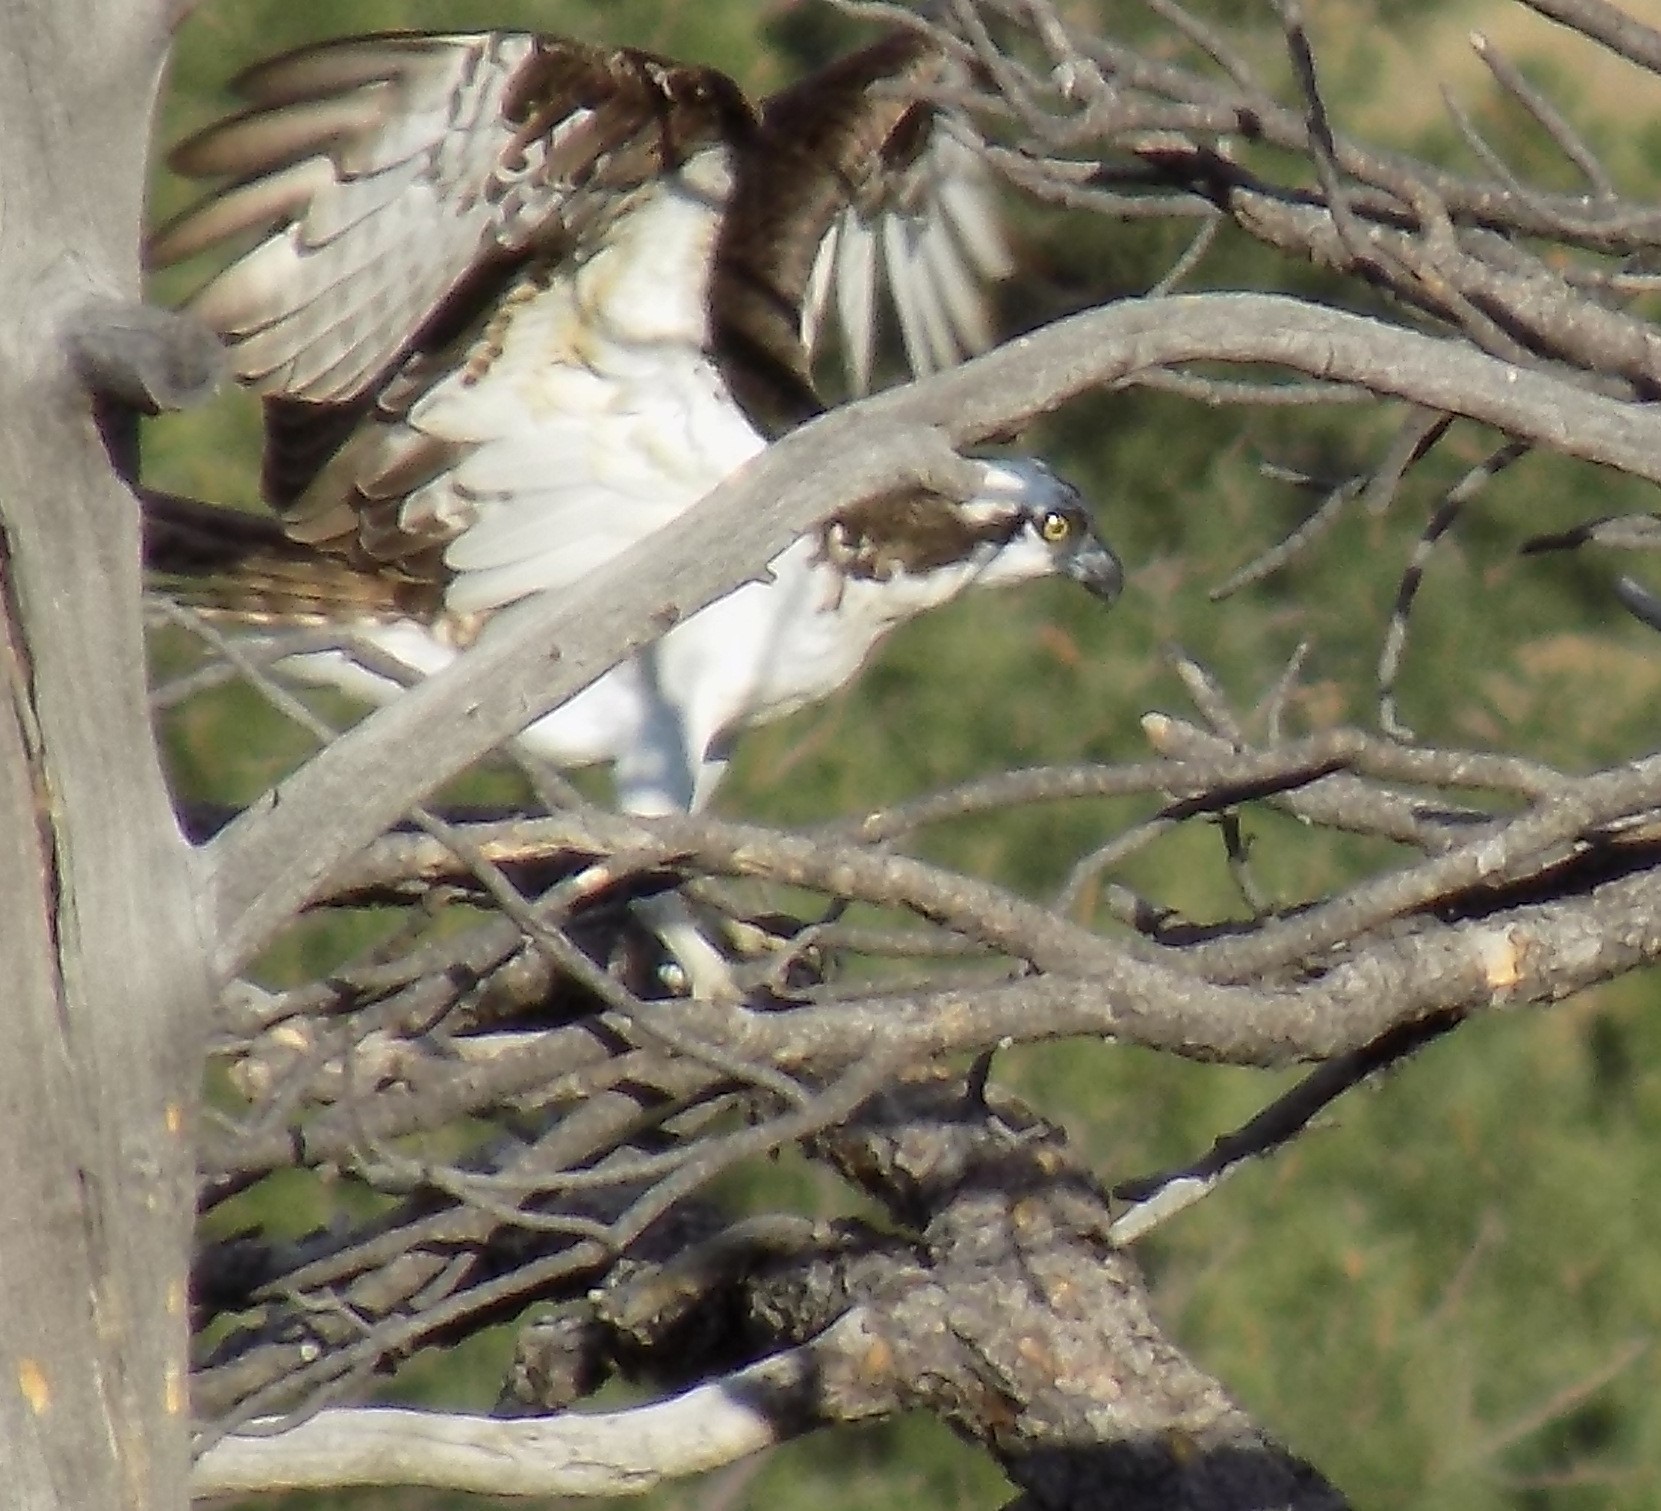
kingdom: Animalia
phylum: Chordata
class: Aves
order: Accipitriformes
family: Pandionidae
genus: Pandion
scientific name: Pandion haliaetus
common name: Osprey
